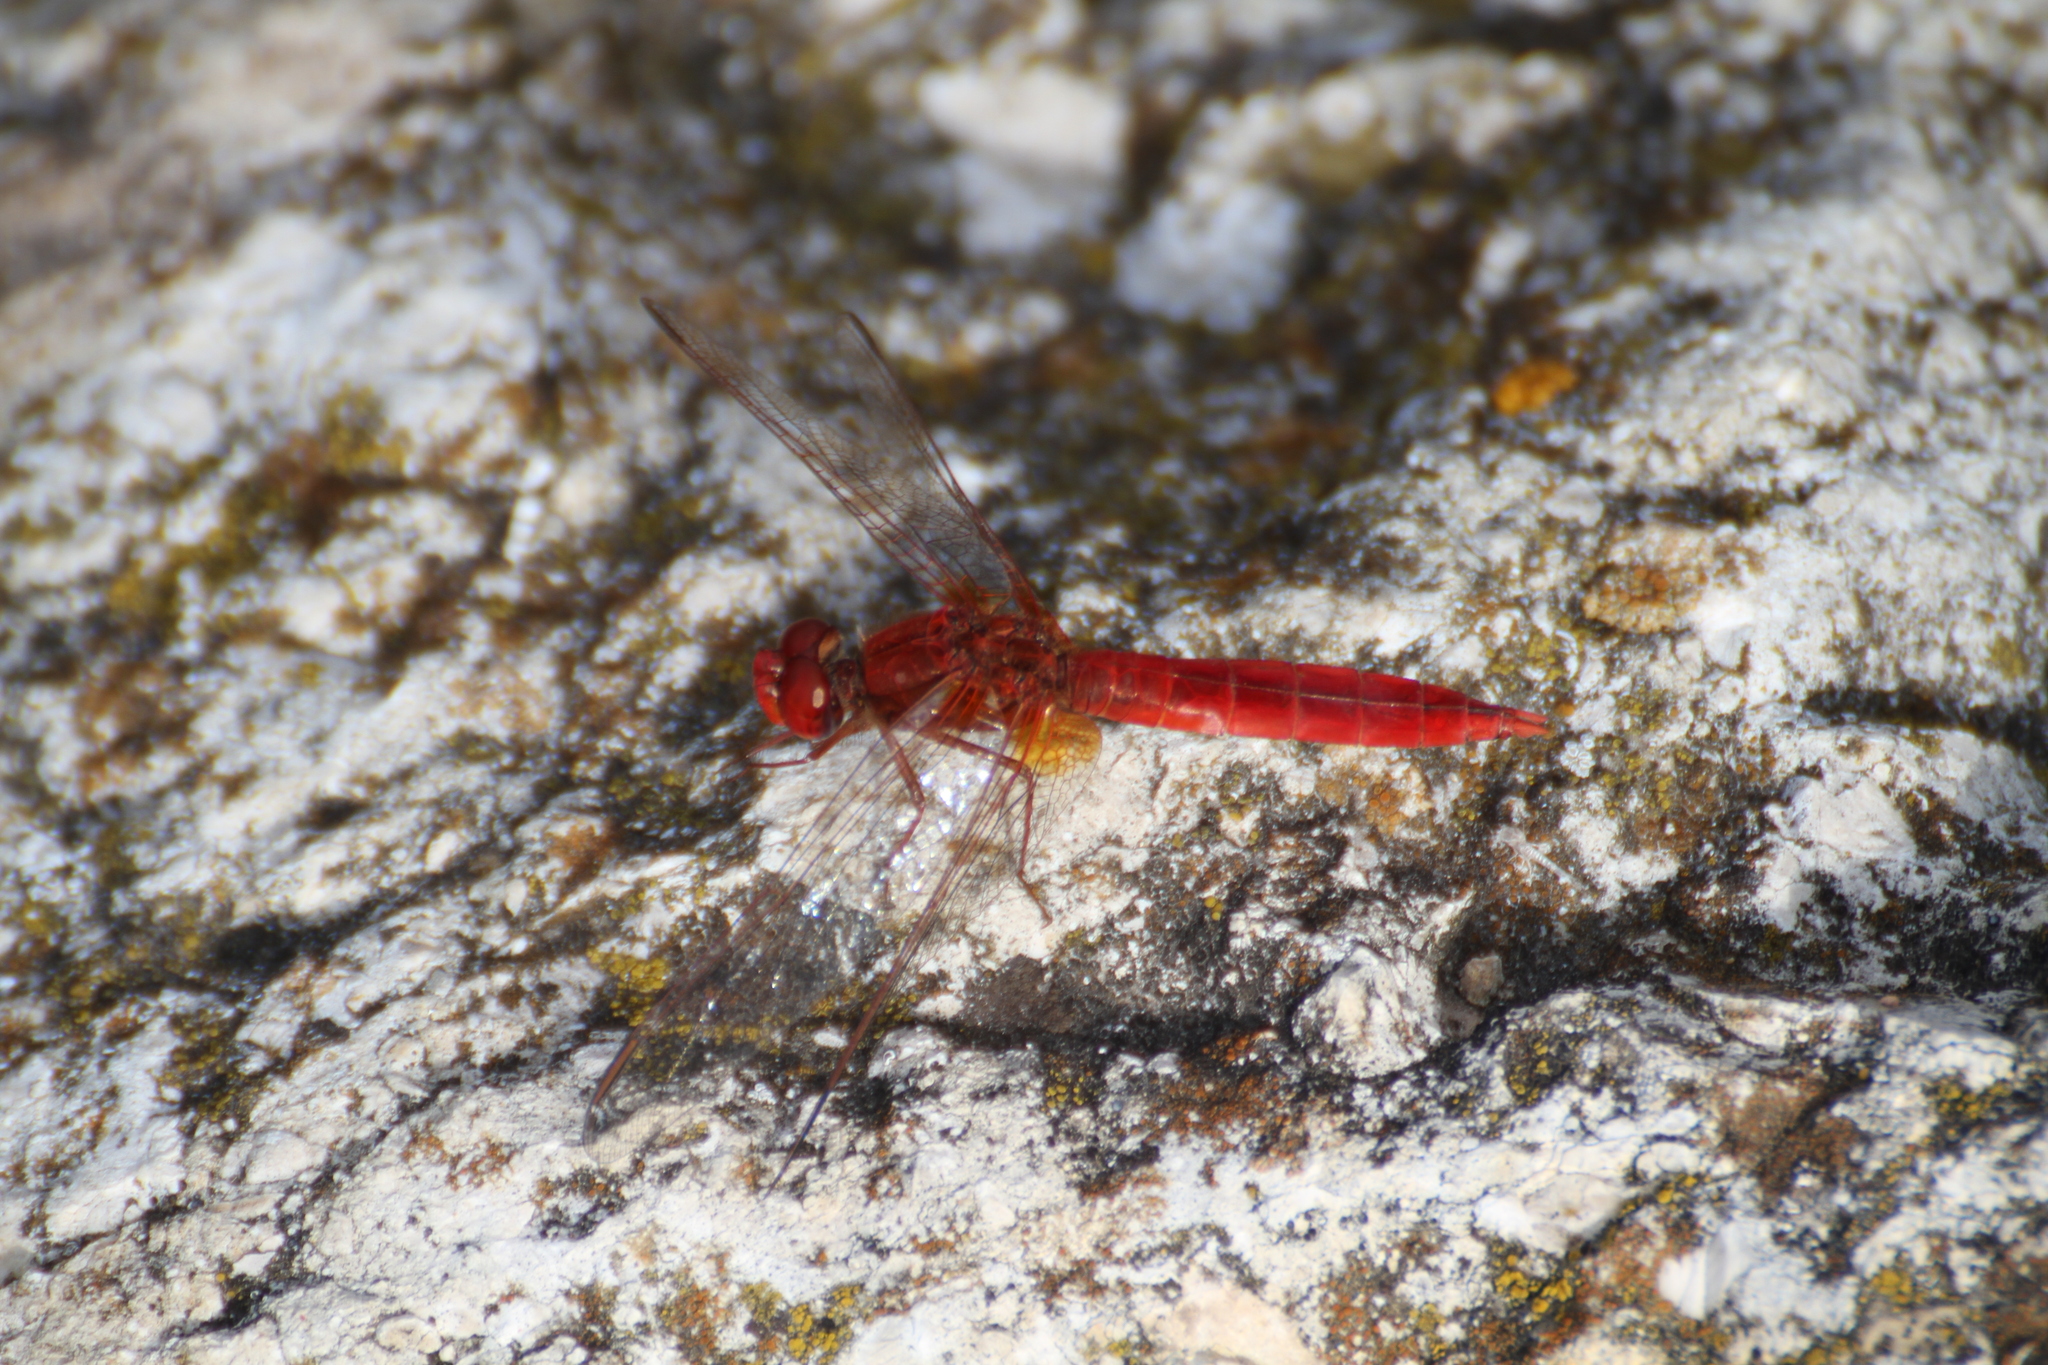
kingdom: Animalia
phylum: Arthropoda
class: Insecta
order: Odonata
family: Libellulidae
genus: Crocothemis
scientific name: Crocothemis erythraea
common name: Scarlet dragonfly
